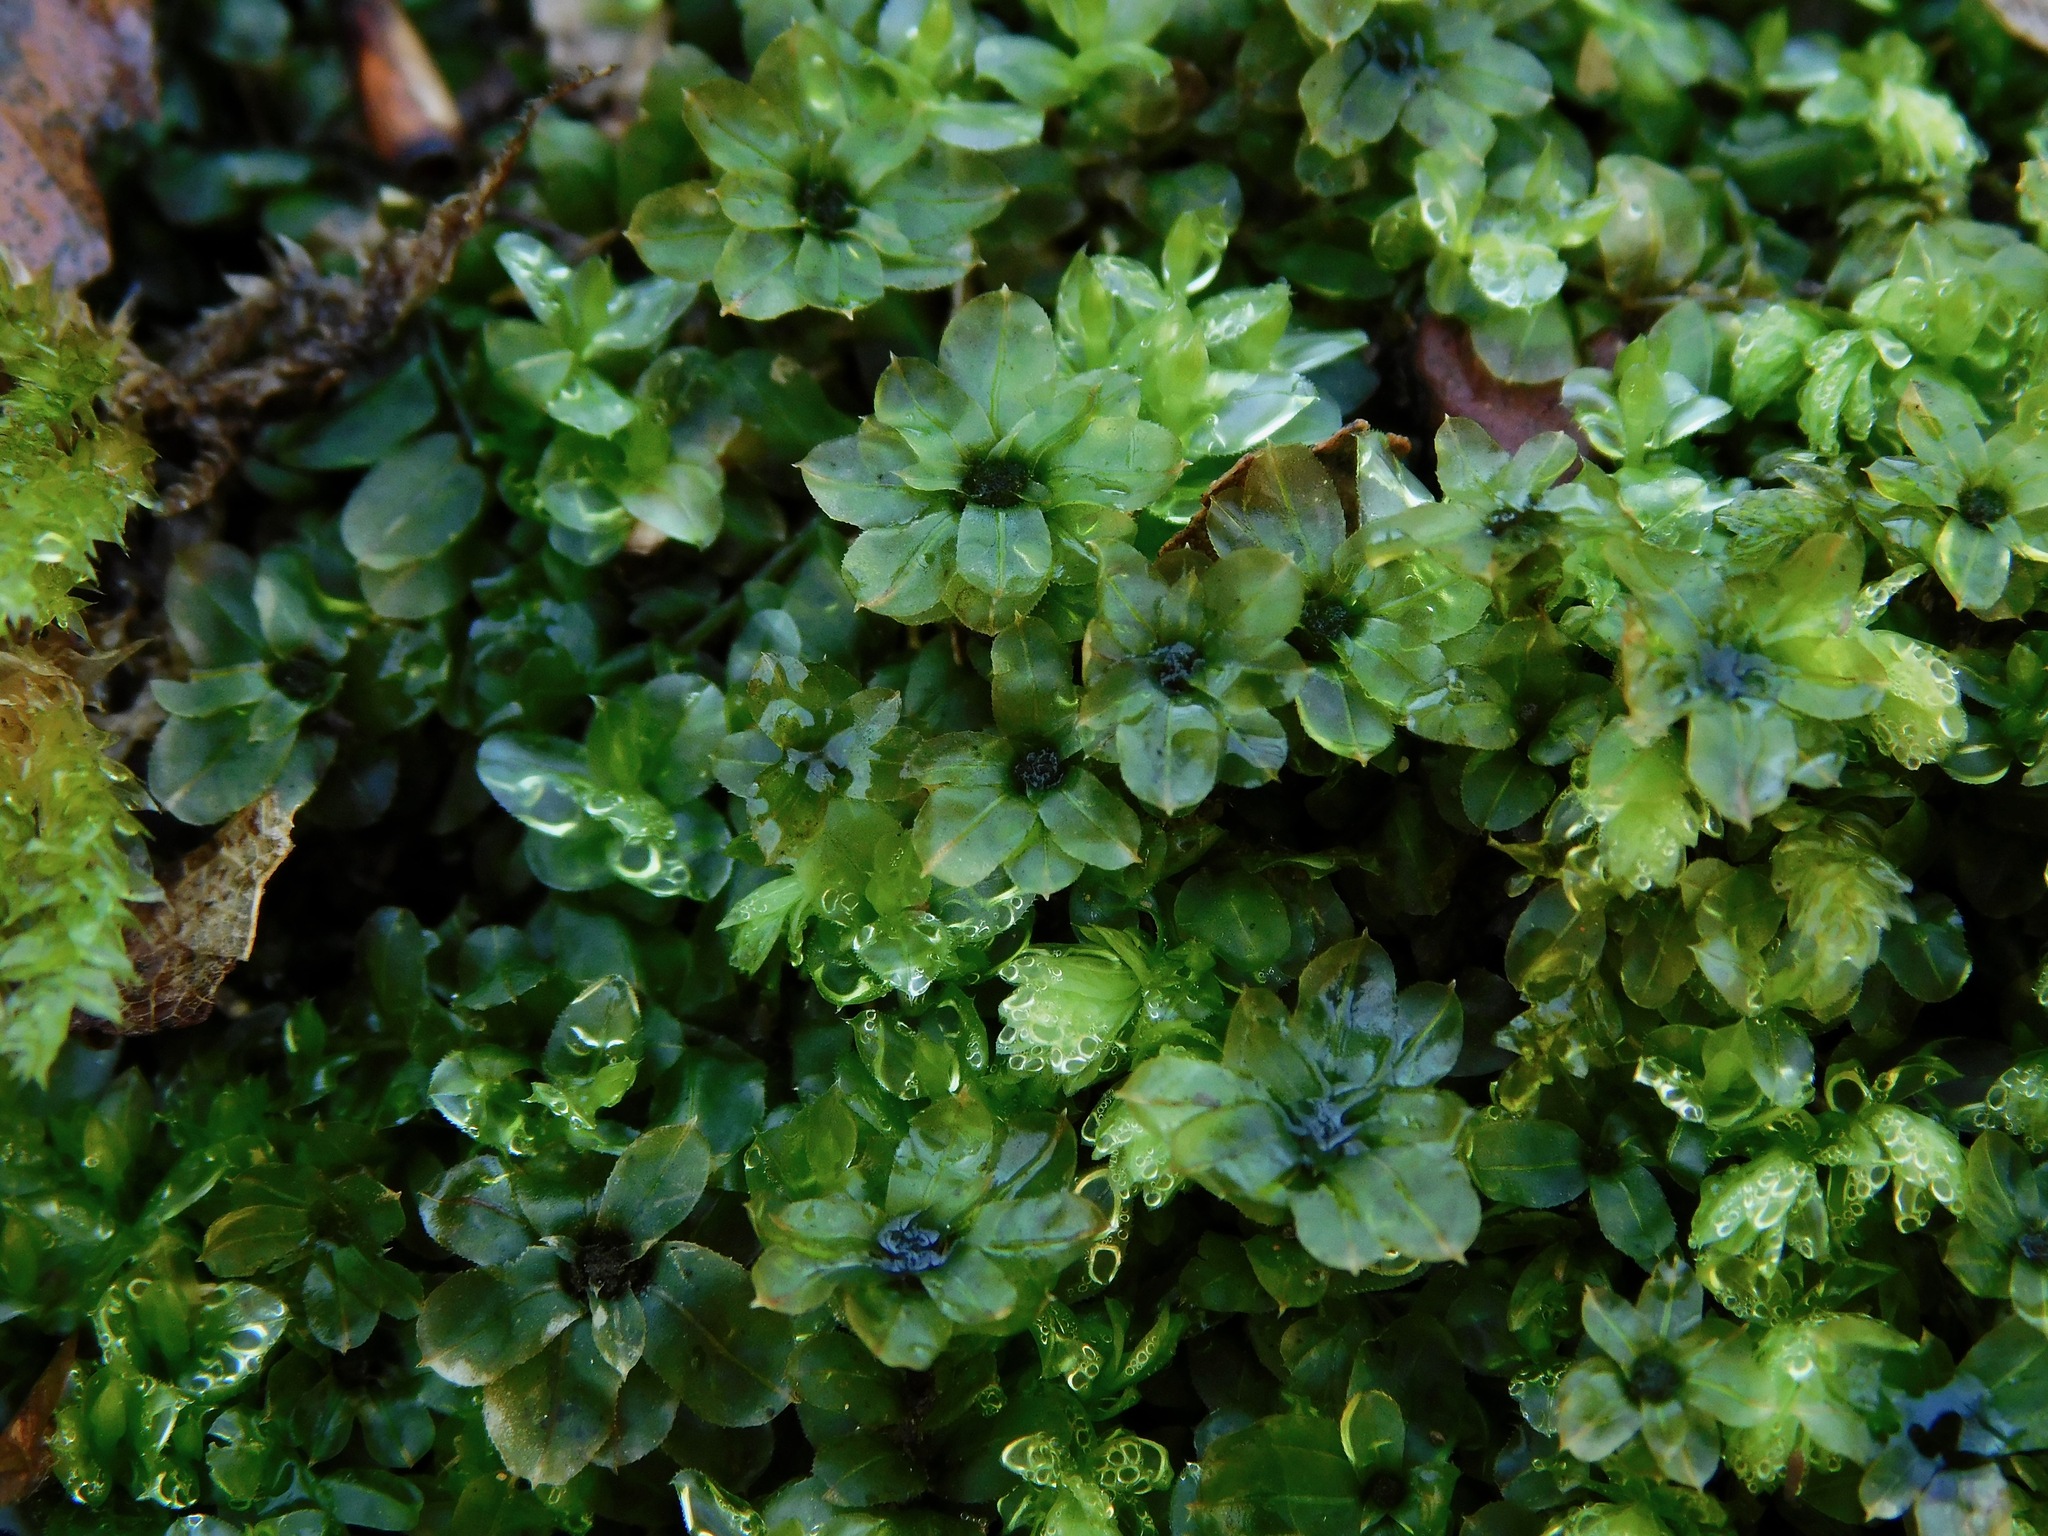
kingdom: Plantae
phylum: Bryophyta
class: Bryopsida
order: Bryales
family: Mniaceae
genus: Plagiomnium
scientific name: Plagiomnium ciliare
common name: Toothed leafy moss
